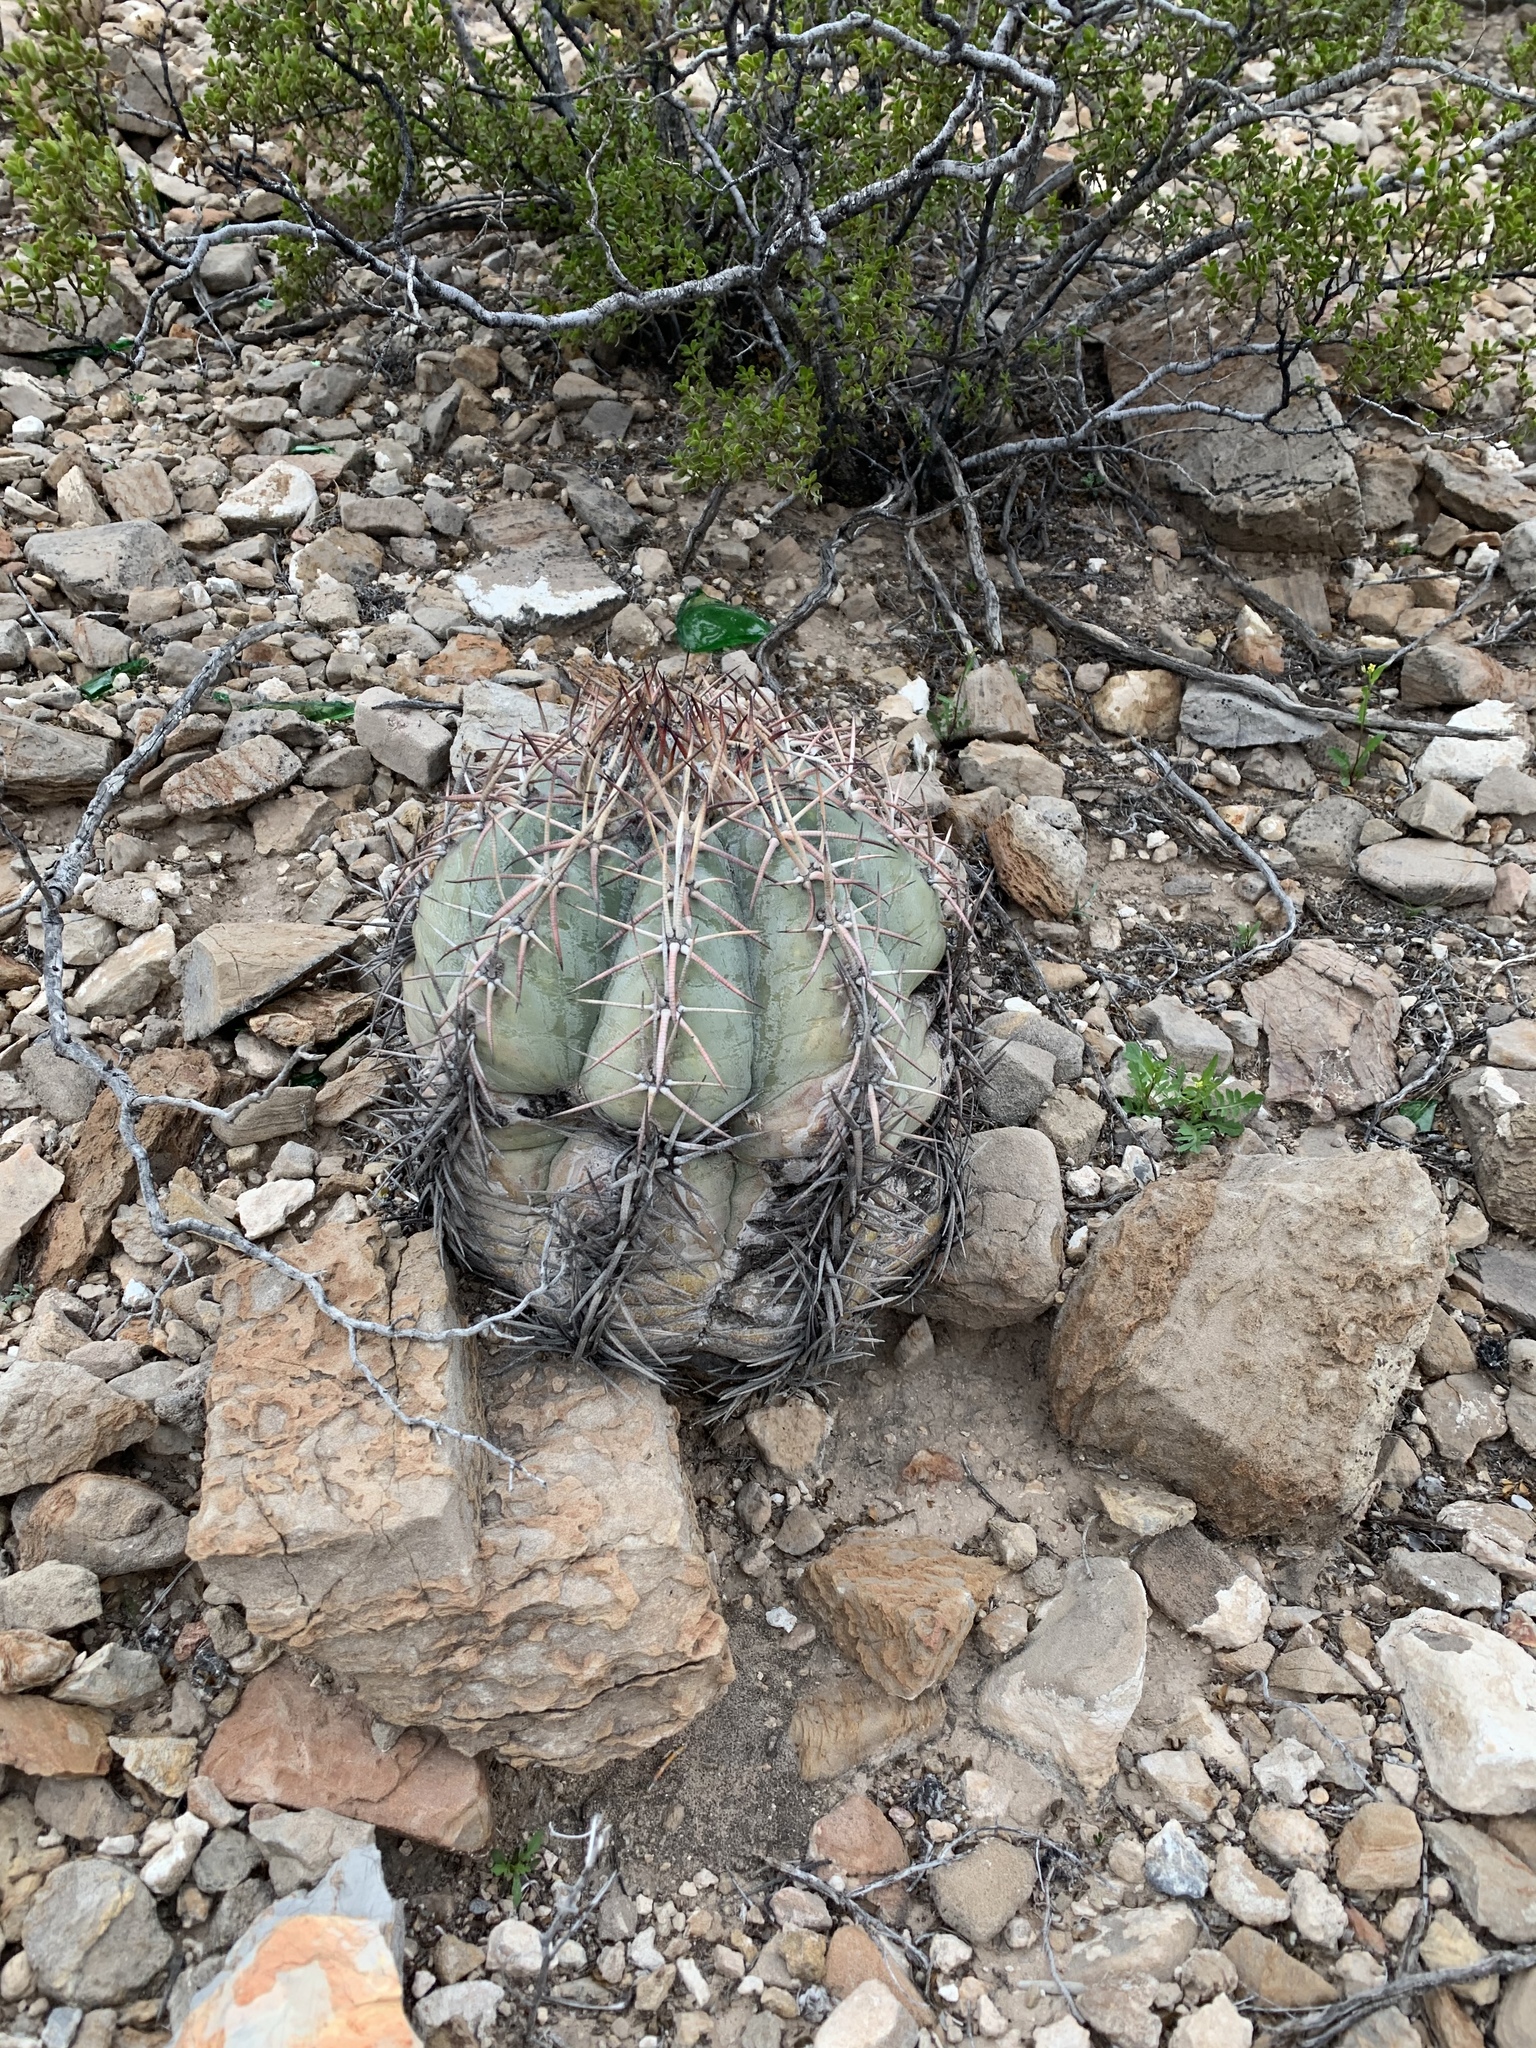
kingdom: Plantae
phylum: Tracheophyta
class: Magnoliopsida
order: Caryophyllales
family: Cactaceae
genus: Echinocactus
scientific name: Echinocactus horizonthalonius
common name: Devilshead
